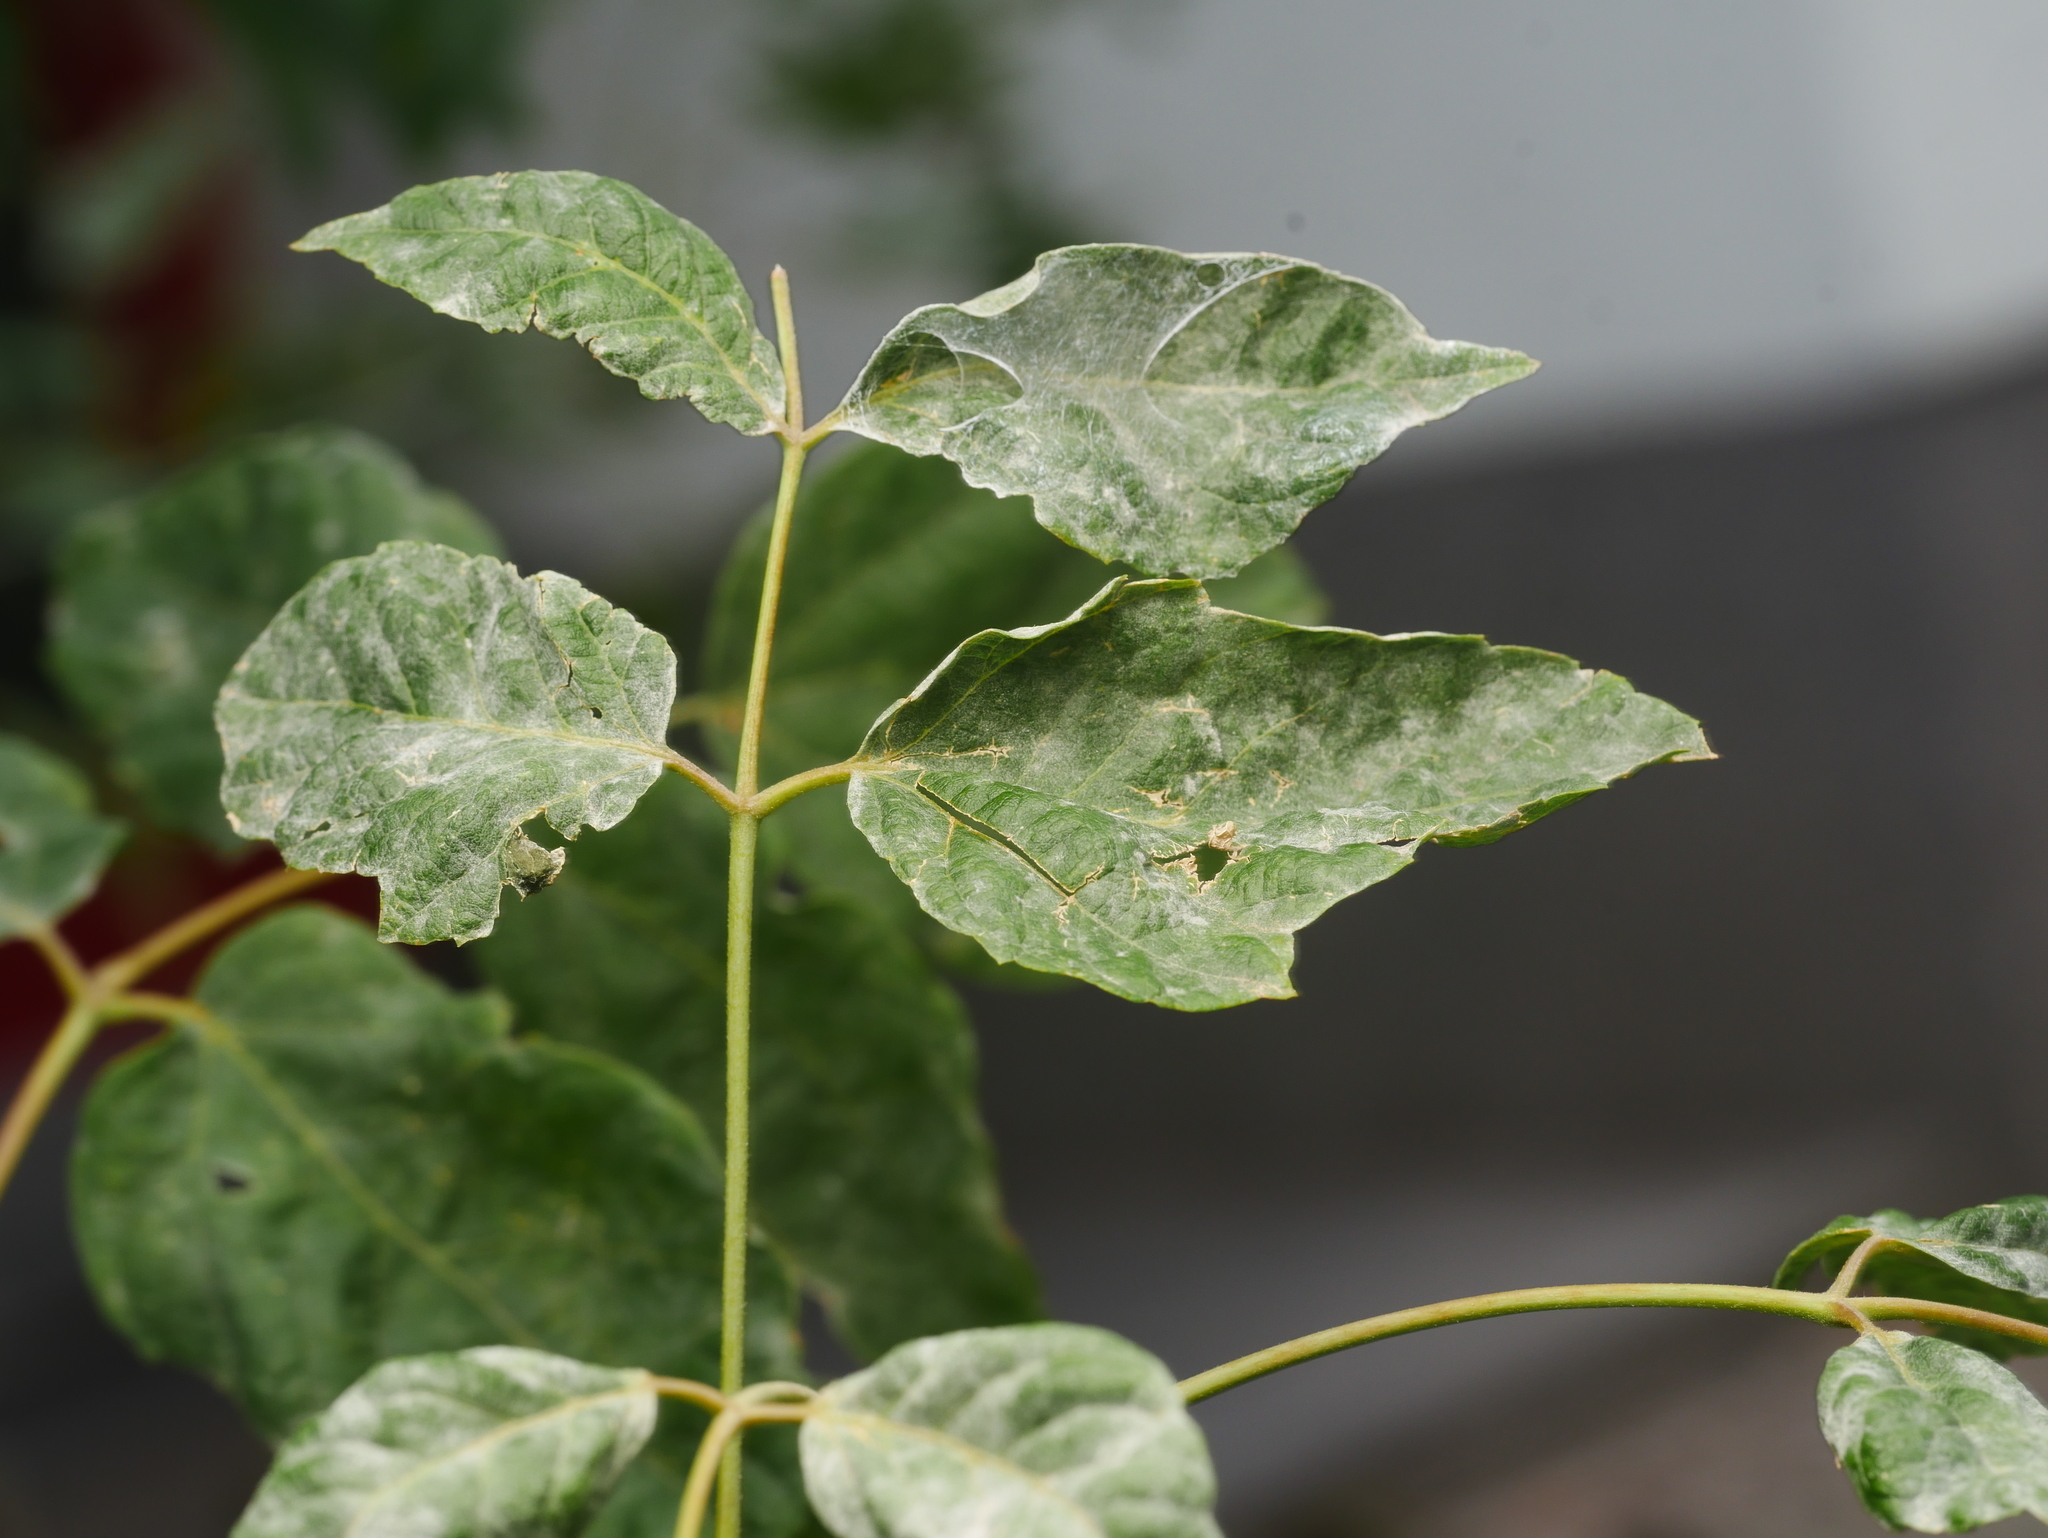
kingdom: Plantae
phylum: Tracheophyta
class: Magnoliopsida
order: Sapindales
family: Sapindaceae
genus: Acer
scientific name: Acer negundo
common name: Ashleaf maple
